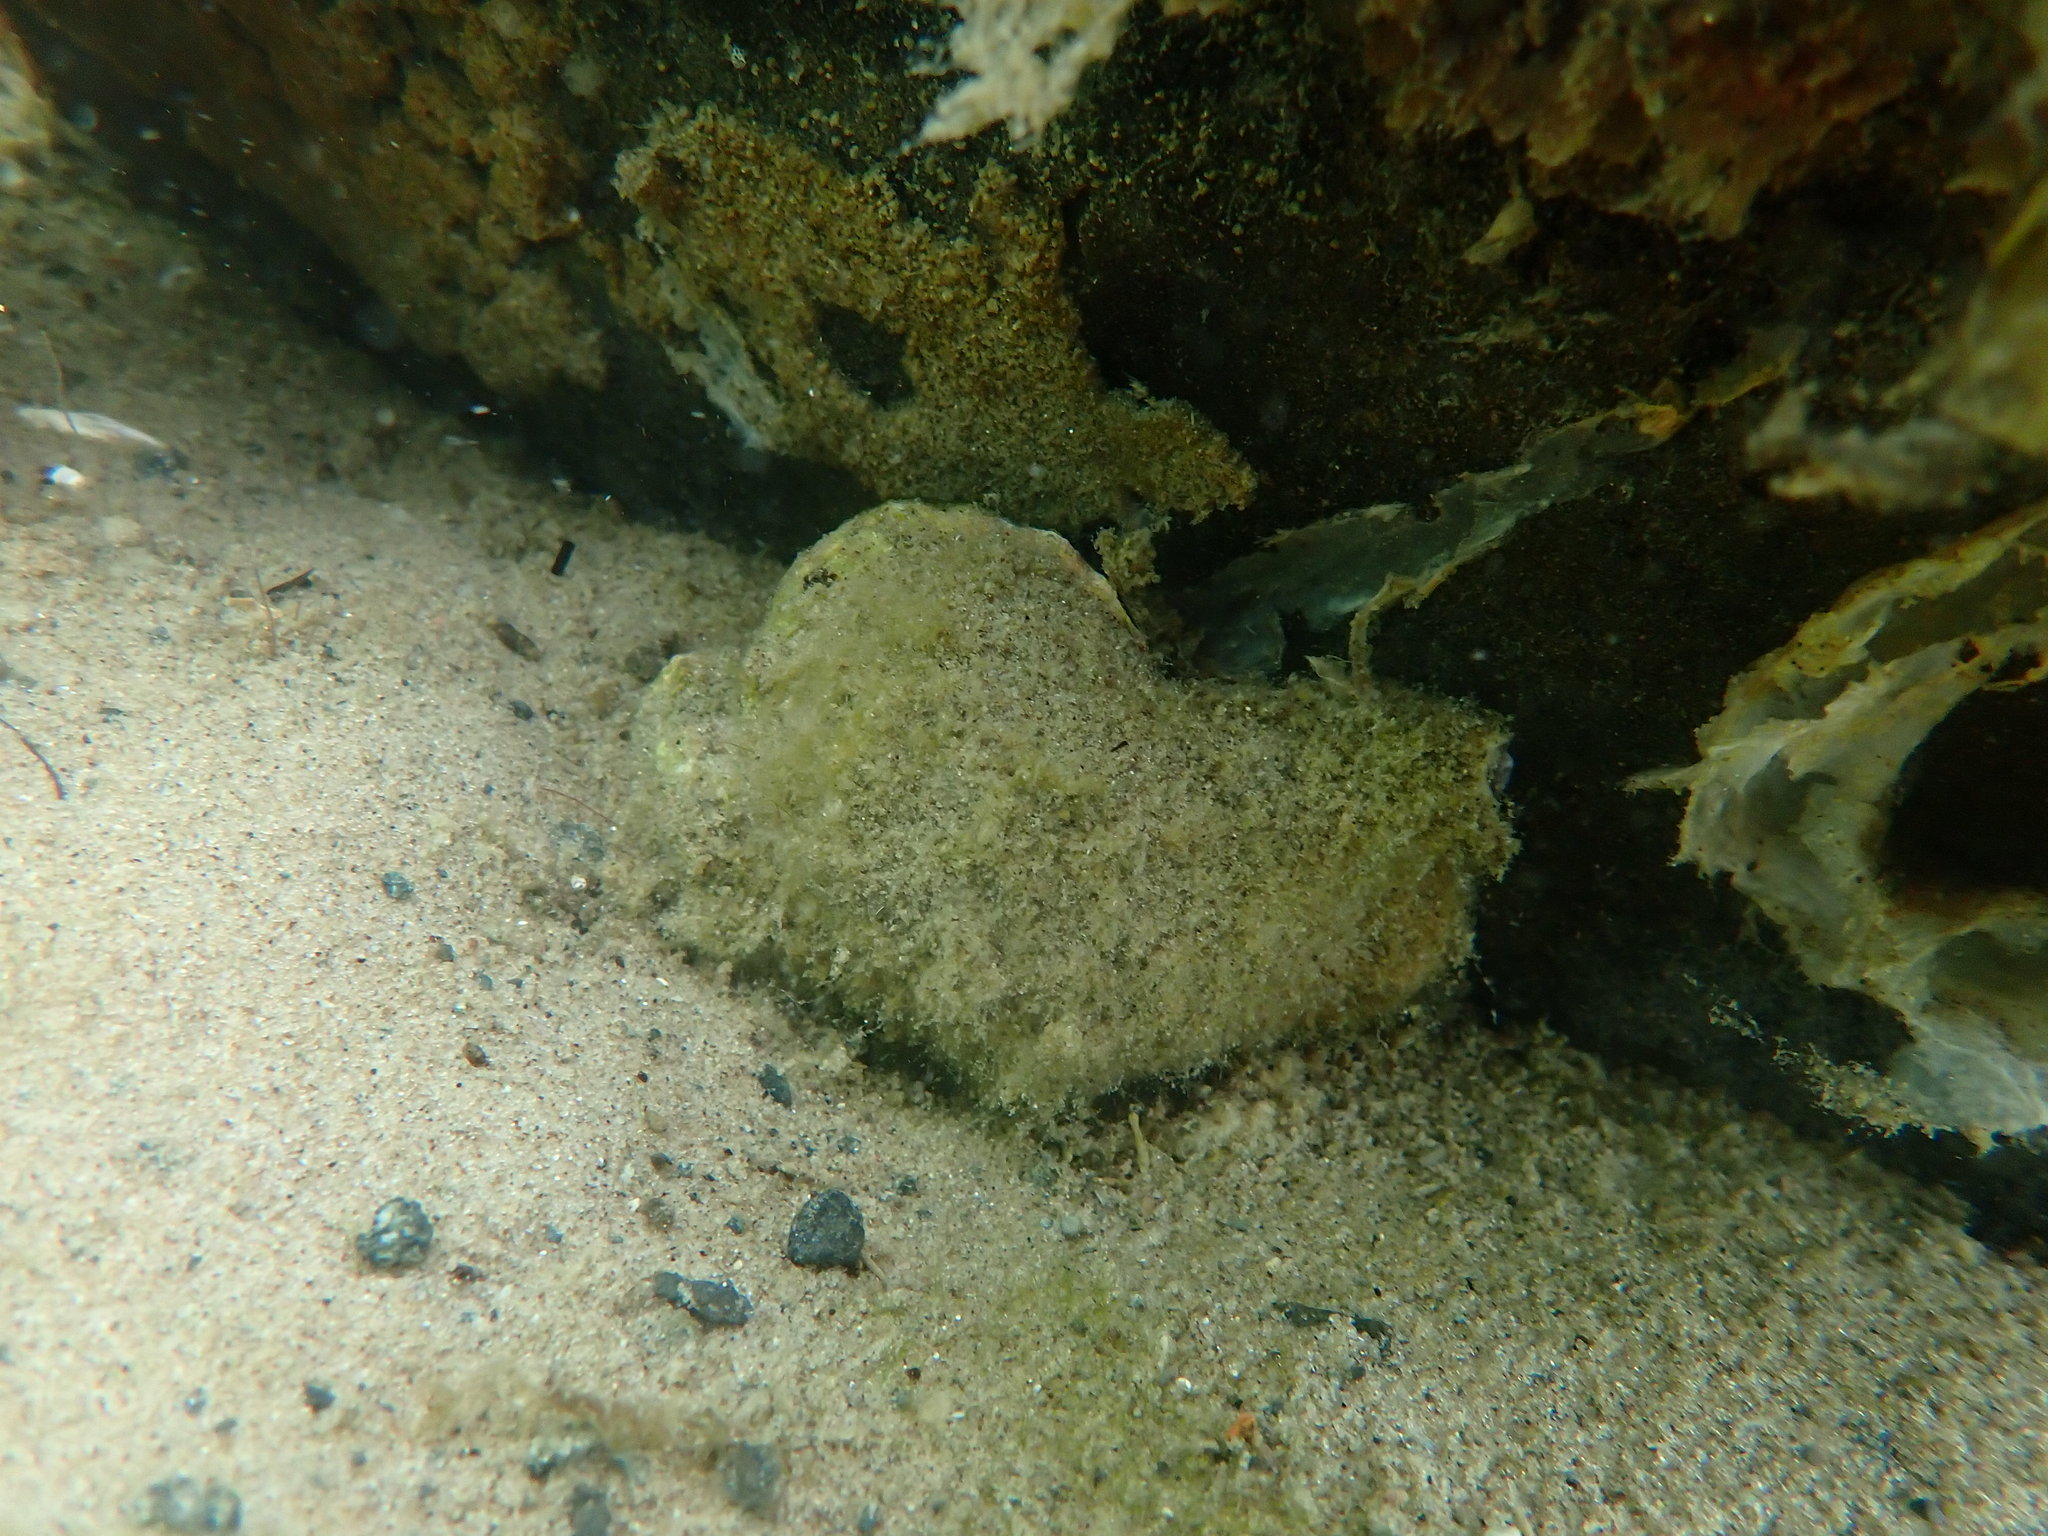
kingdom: Animalia
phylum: Mollusca
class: Gastropoda
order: Littorinimorpha
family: Ranellidae
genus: Ranella
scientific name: Ranella australasia
